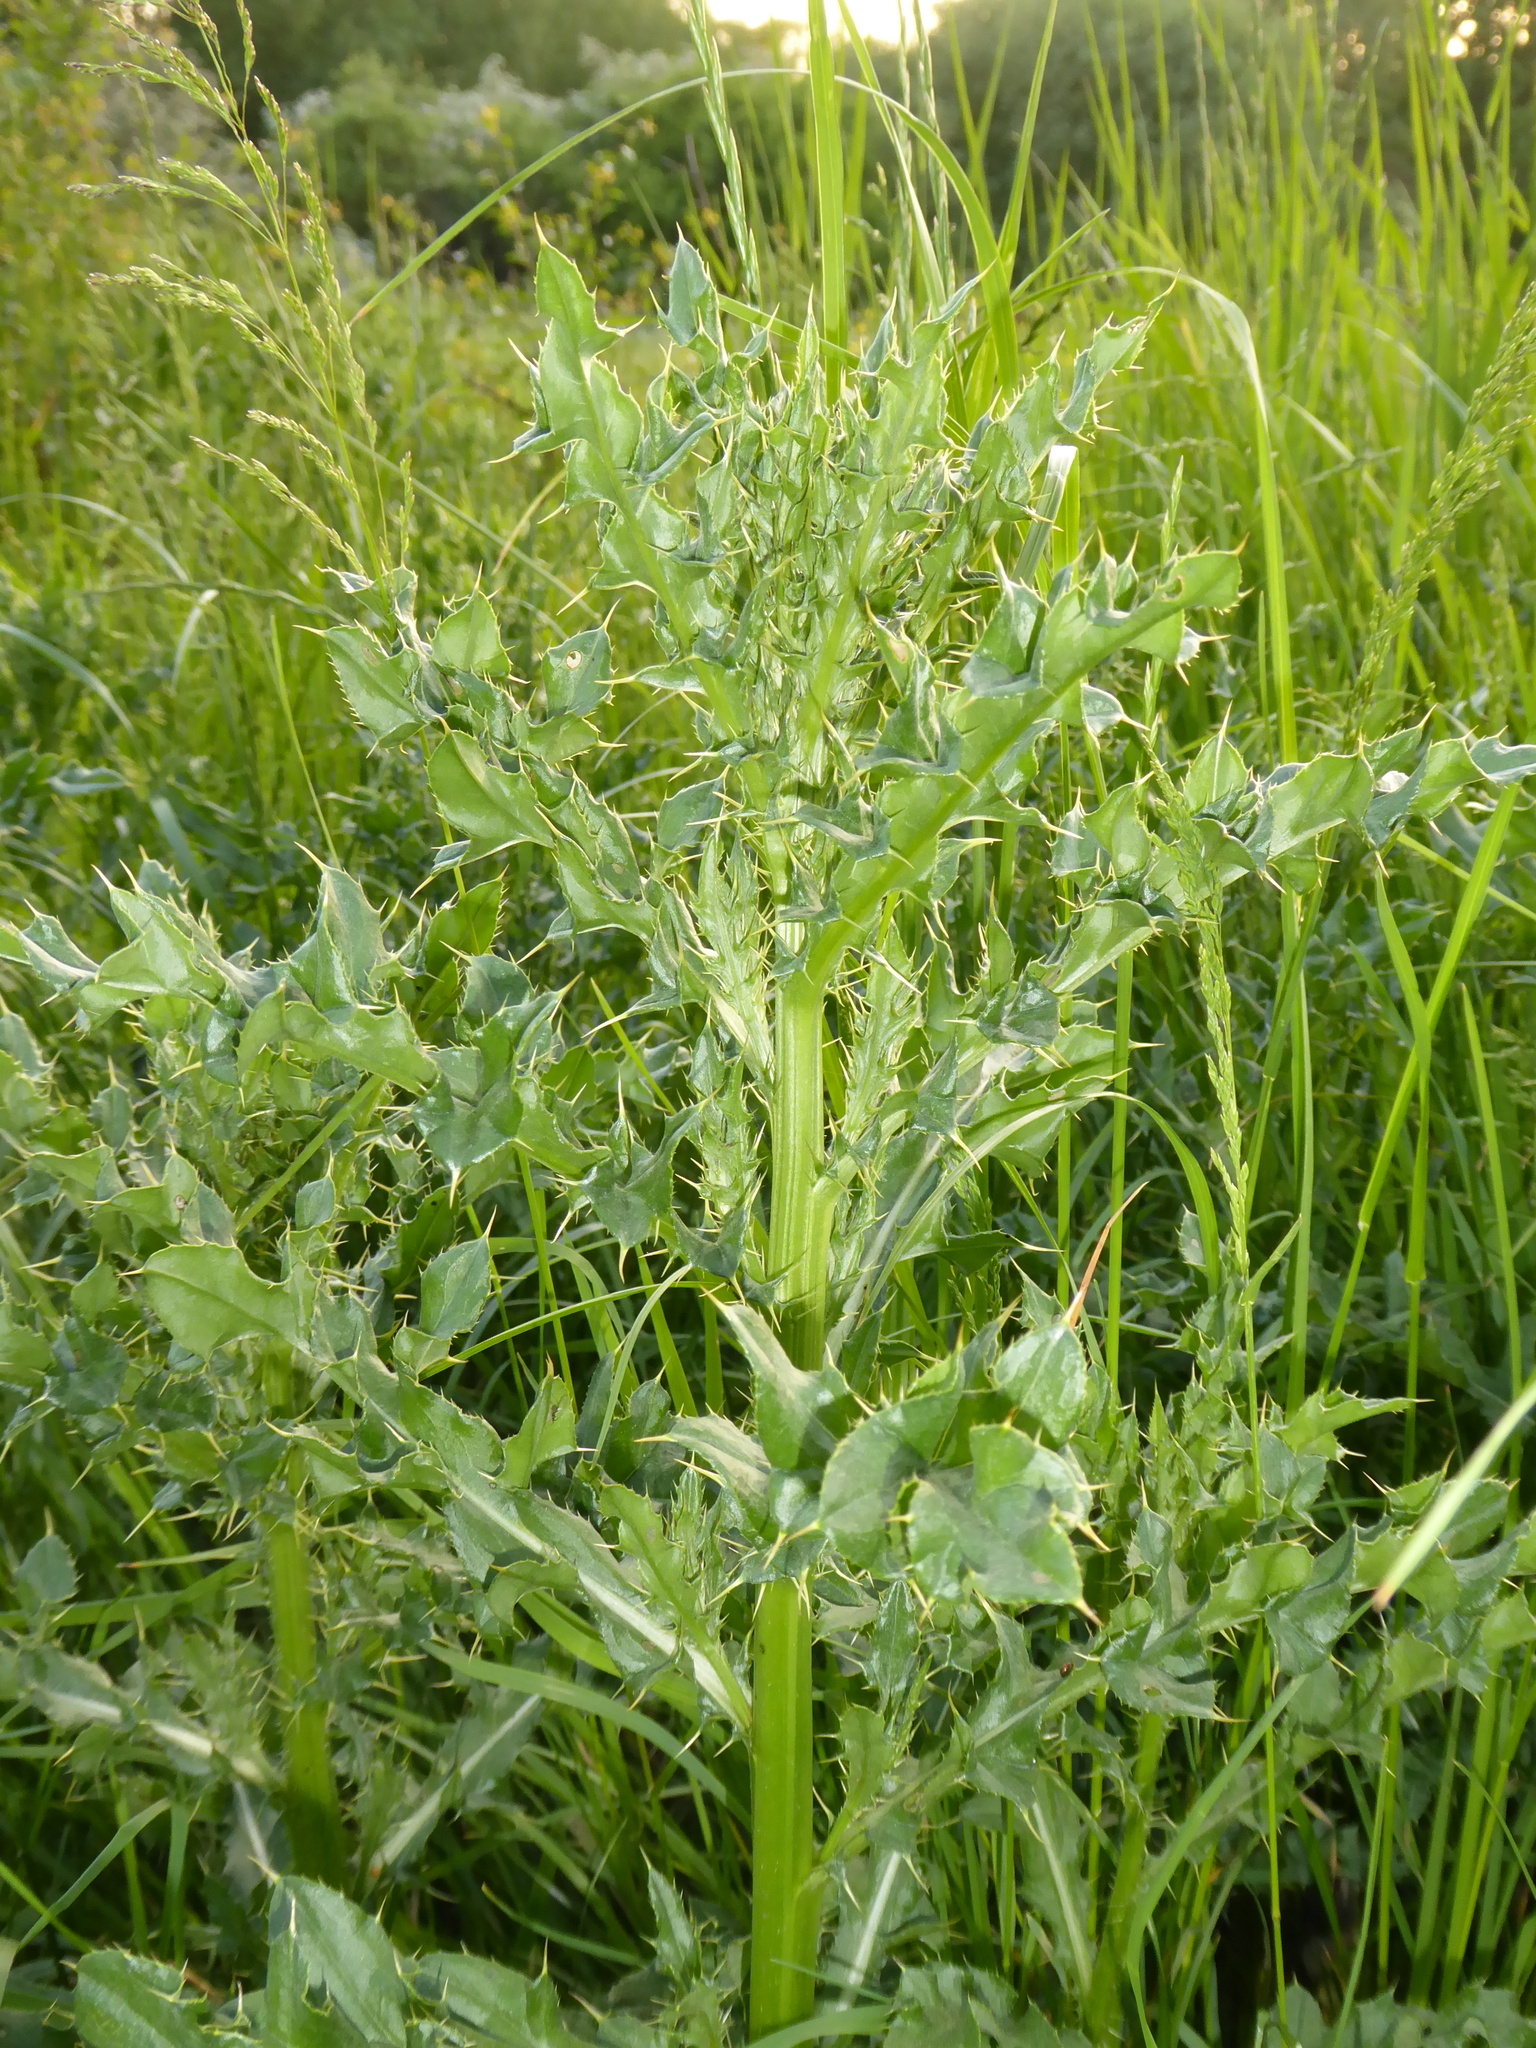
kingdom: Plantae
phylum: Tracheophyta
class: Magnoliopsida
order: Asterales
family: Asteraceae
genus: Cirsium
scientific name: Cirsium arvense
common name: Creeping thistle
